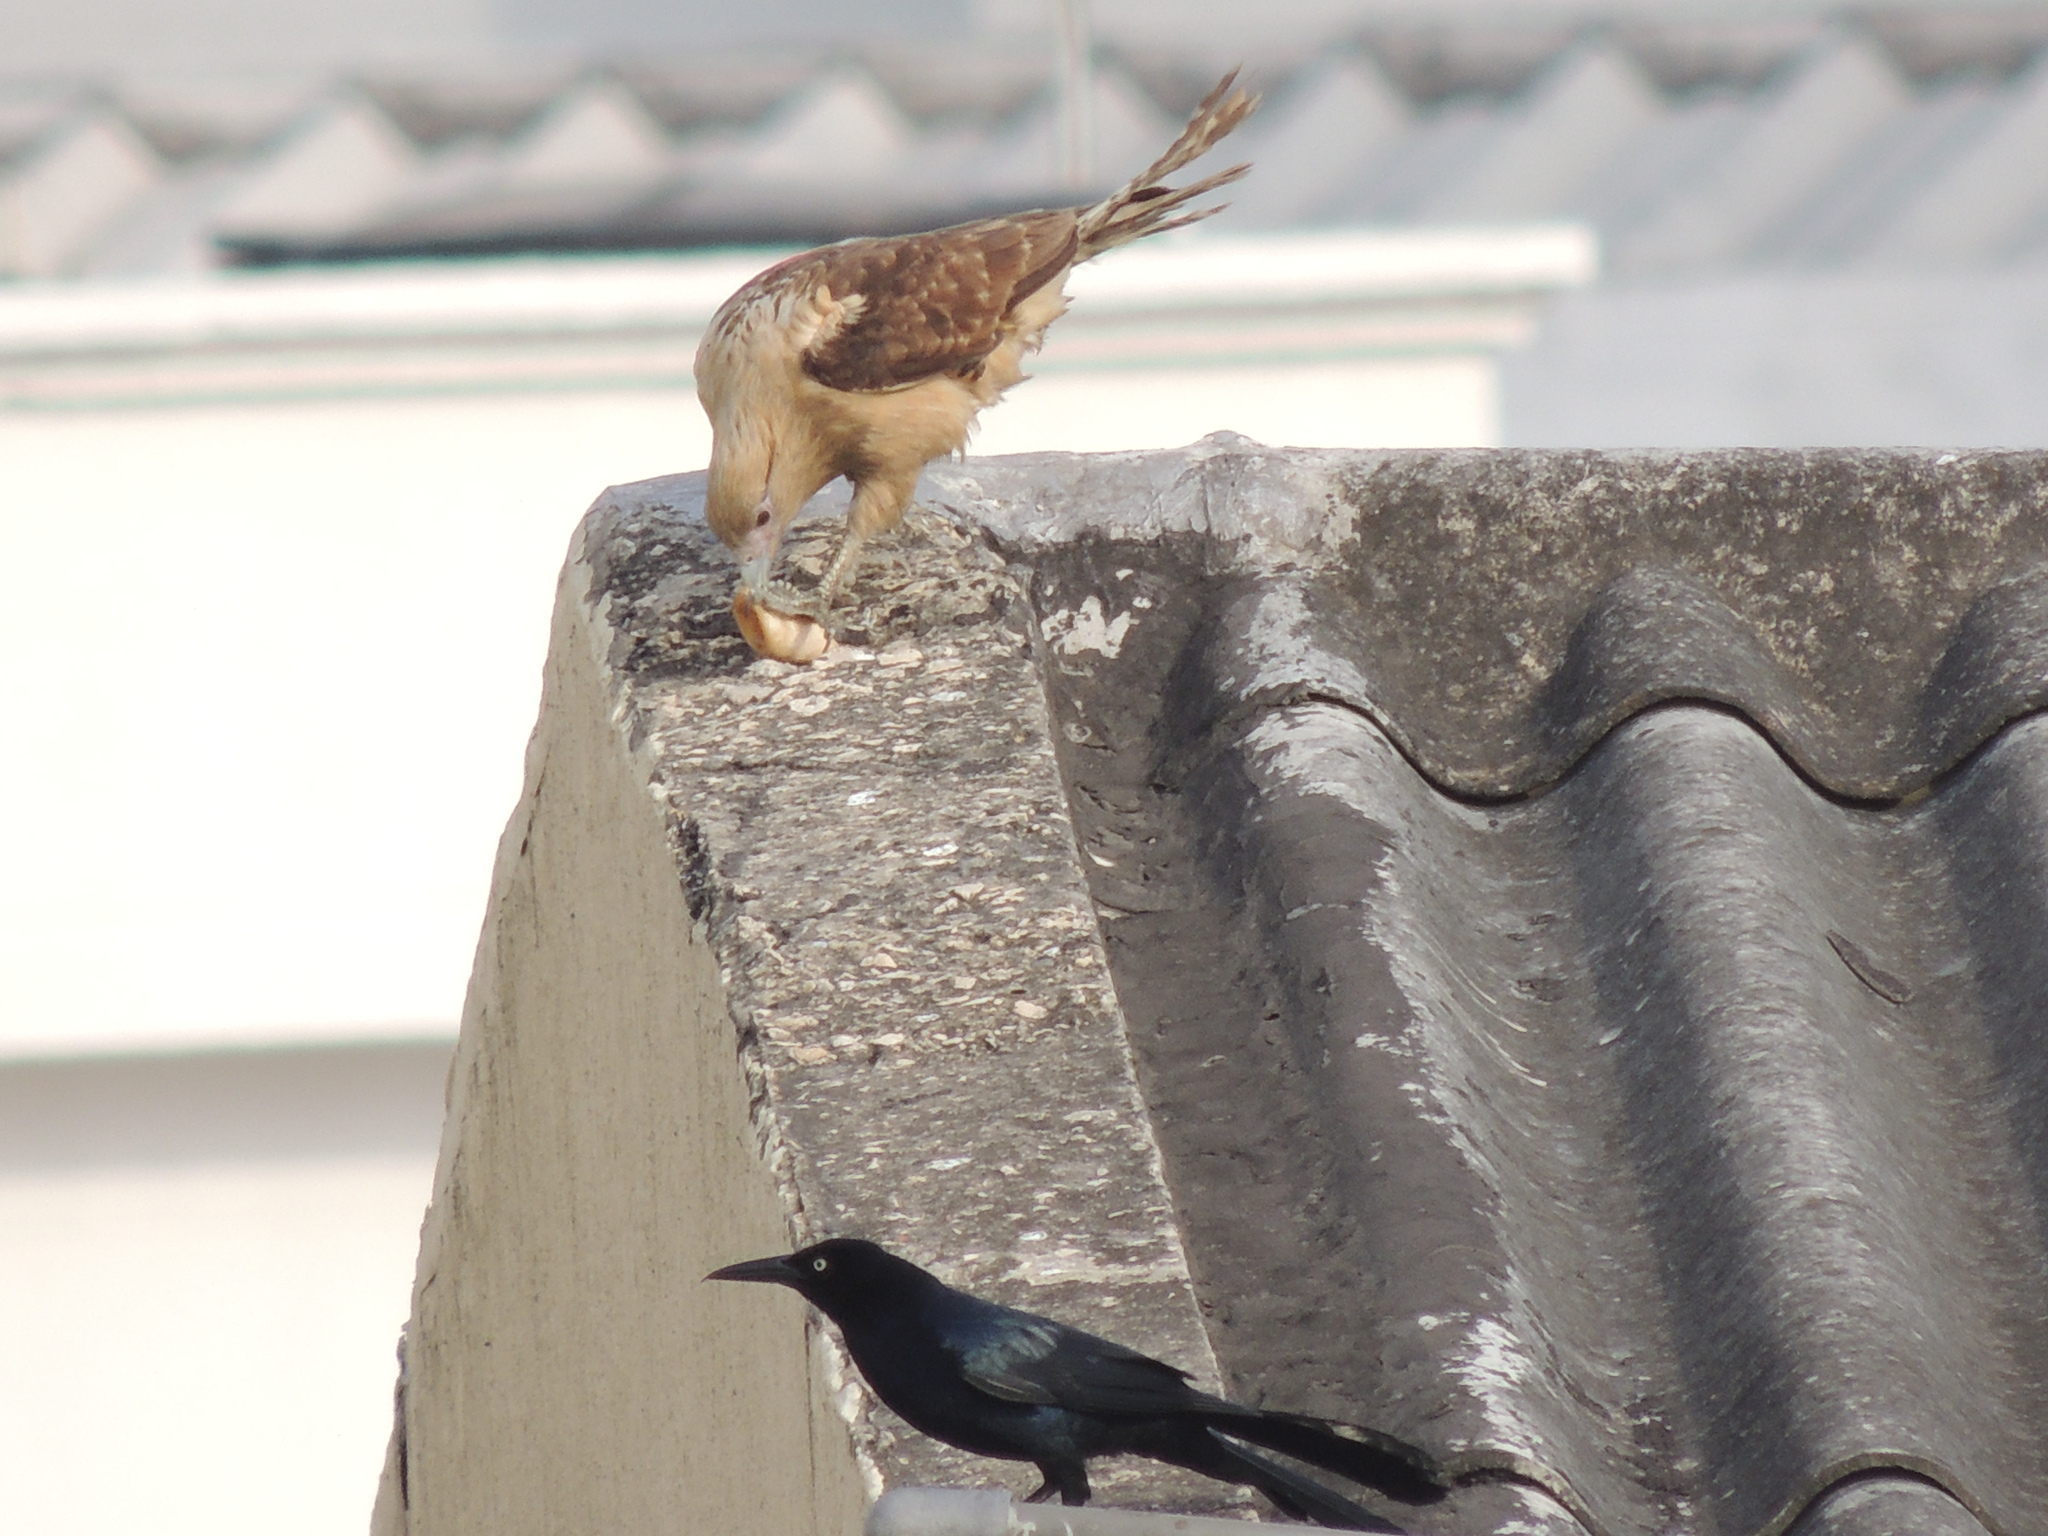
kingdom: Animalia
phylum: Chordata
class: Aves
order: Falconiformes
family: Falconidae
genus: Daptrius
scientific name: Daptrius
